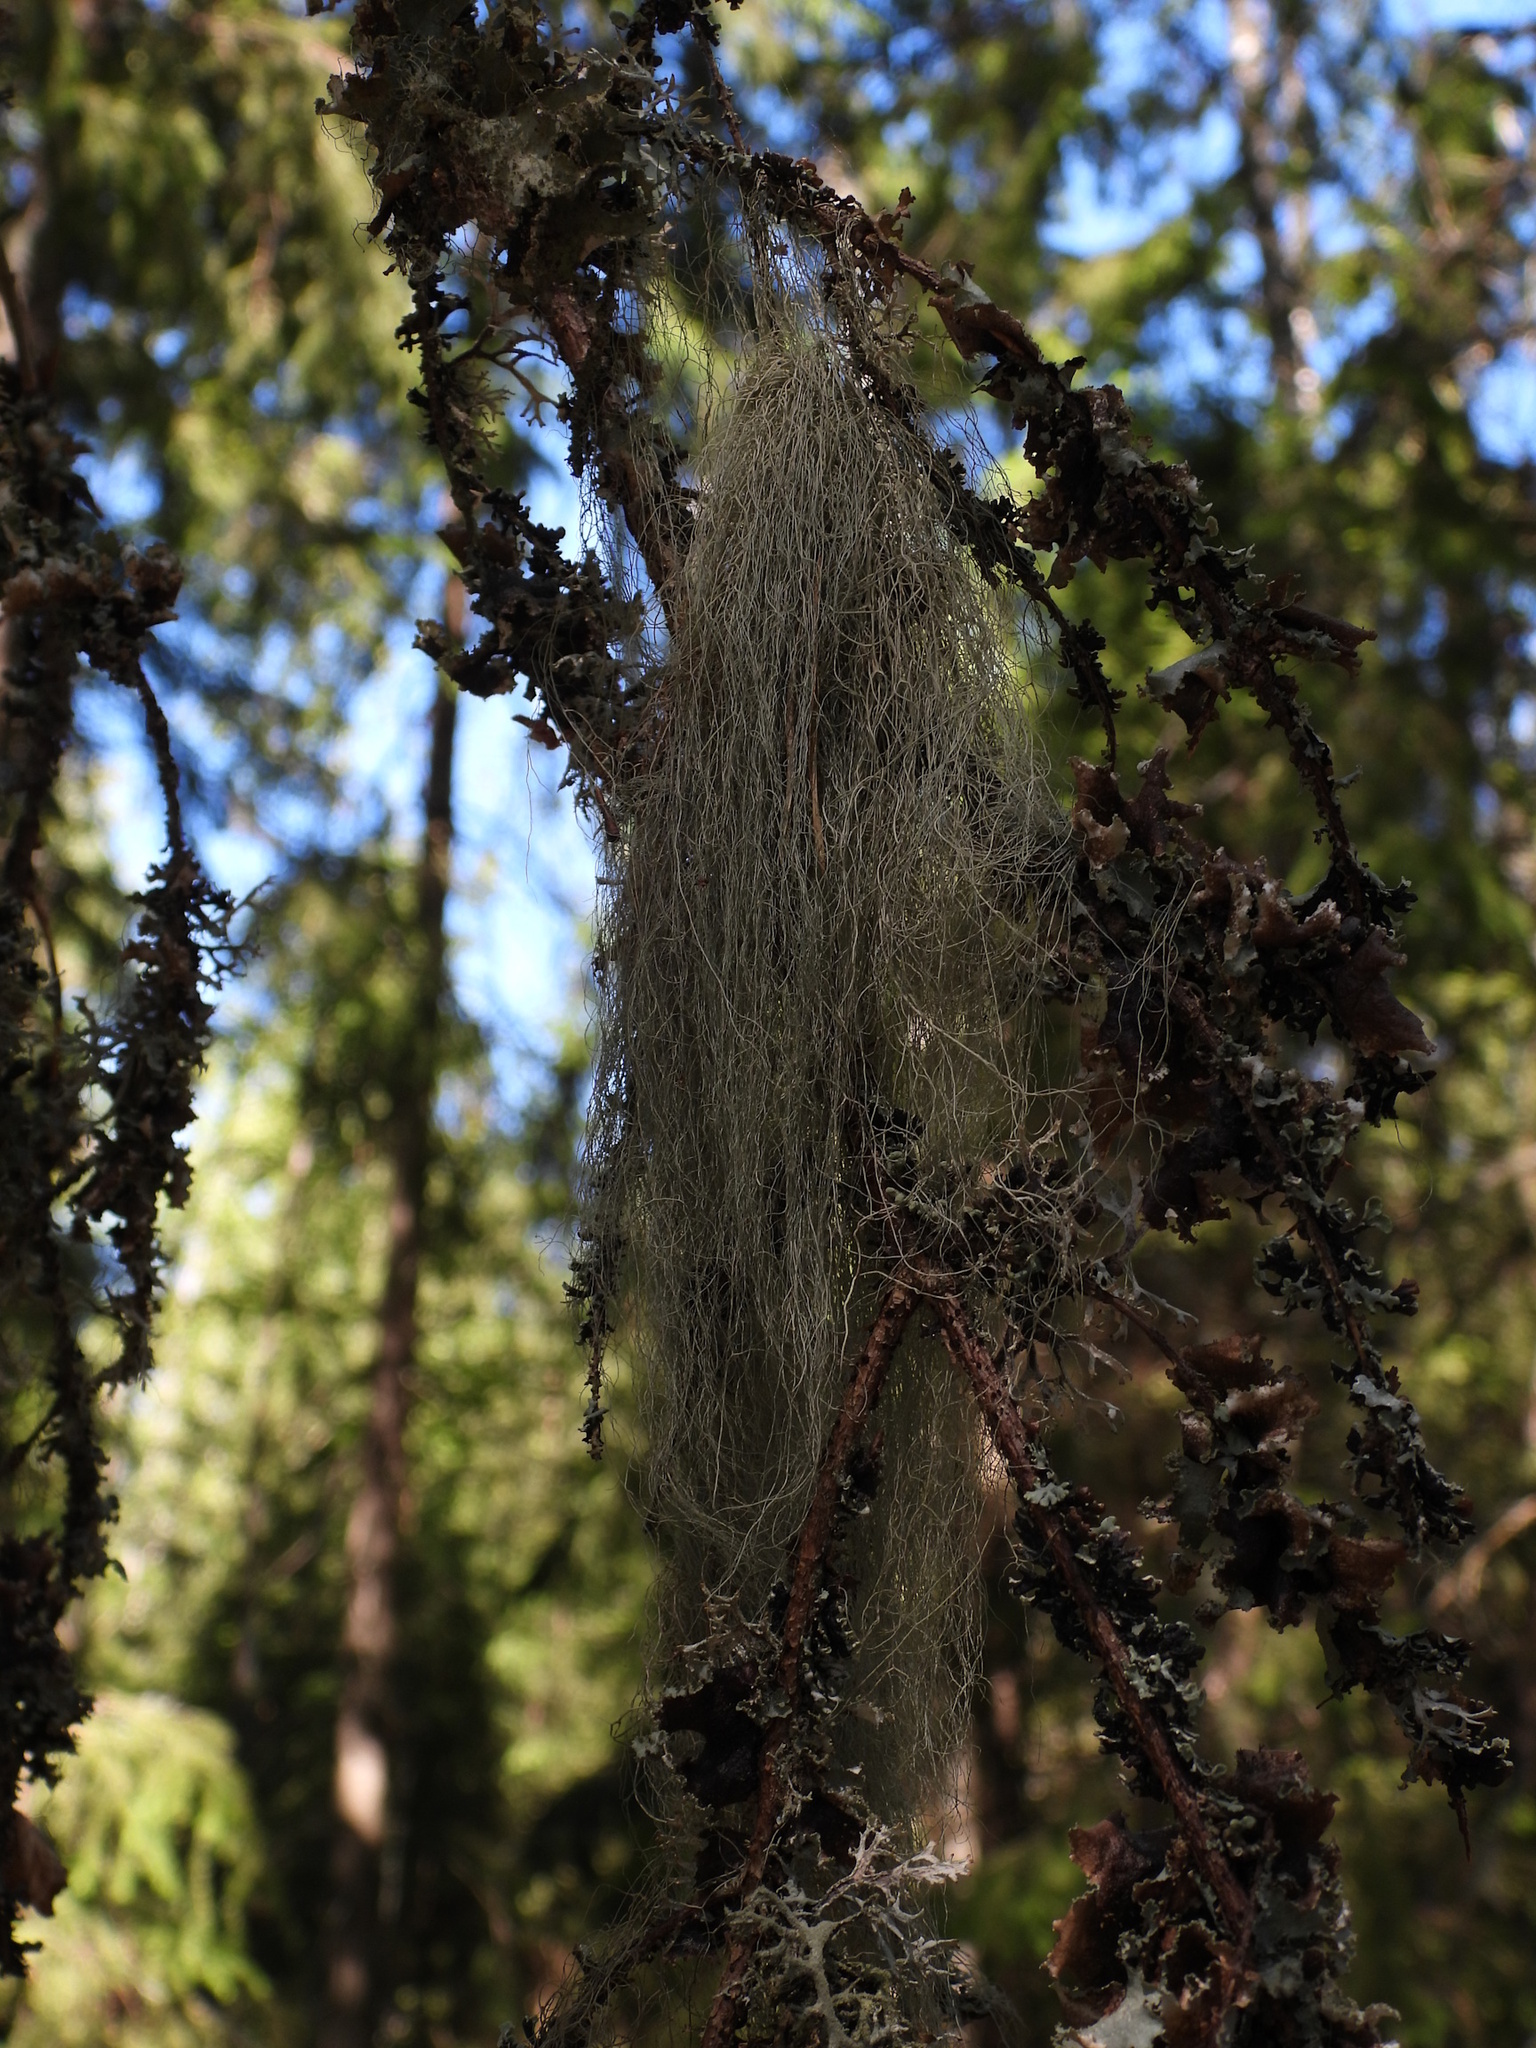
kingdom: Fungi
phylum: Ascomycota
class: Lecanoromycetes
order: Lecanorales
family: Parmeliaceae
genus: Bryoria
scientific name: Bryoria fuscescens
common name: Pale-footed horsehair lichen
